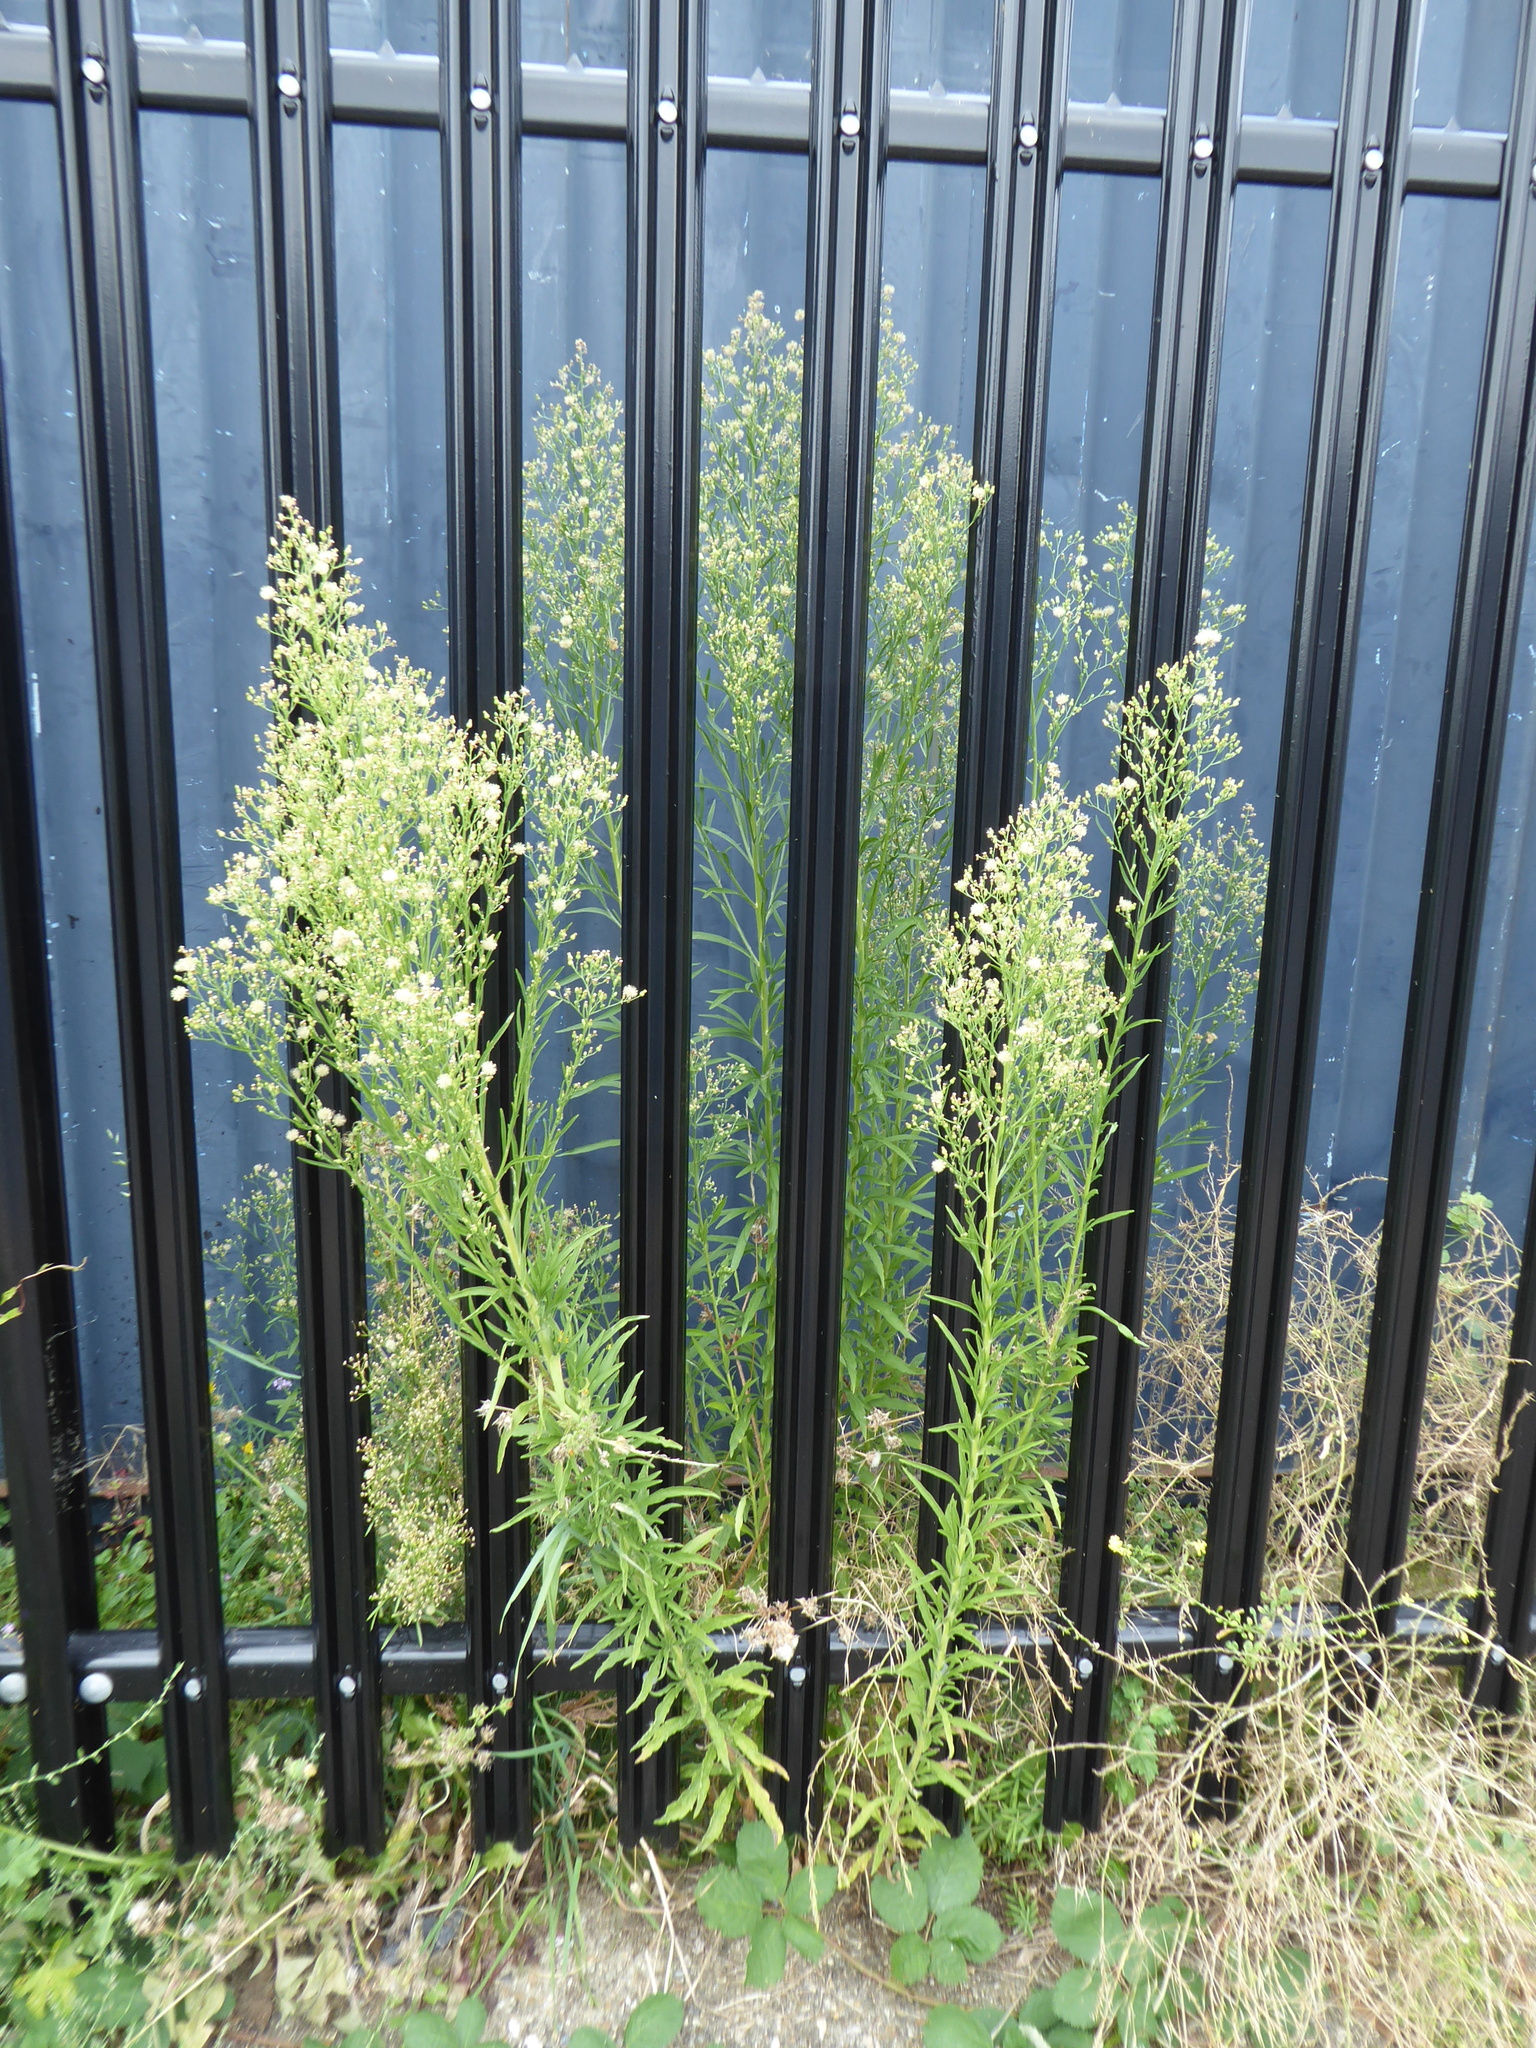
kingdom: Plantae
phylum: Tracheophyta
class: Magnoliopsida
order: Asterales
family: Asteraceae
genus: Erigeron
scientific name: Erigeron sumatrensis
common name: Daisy
